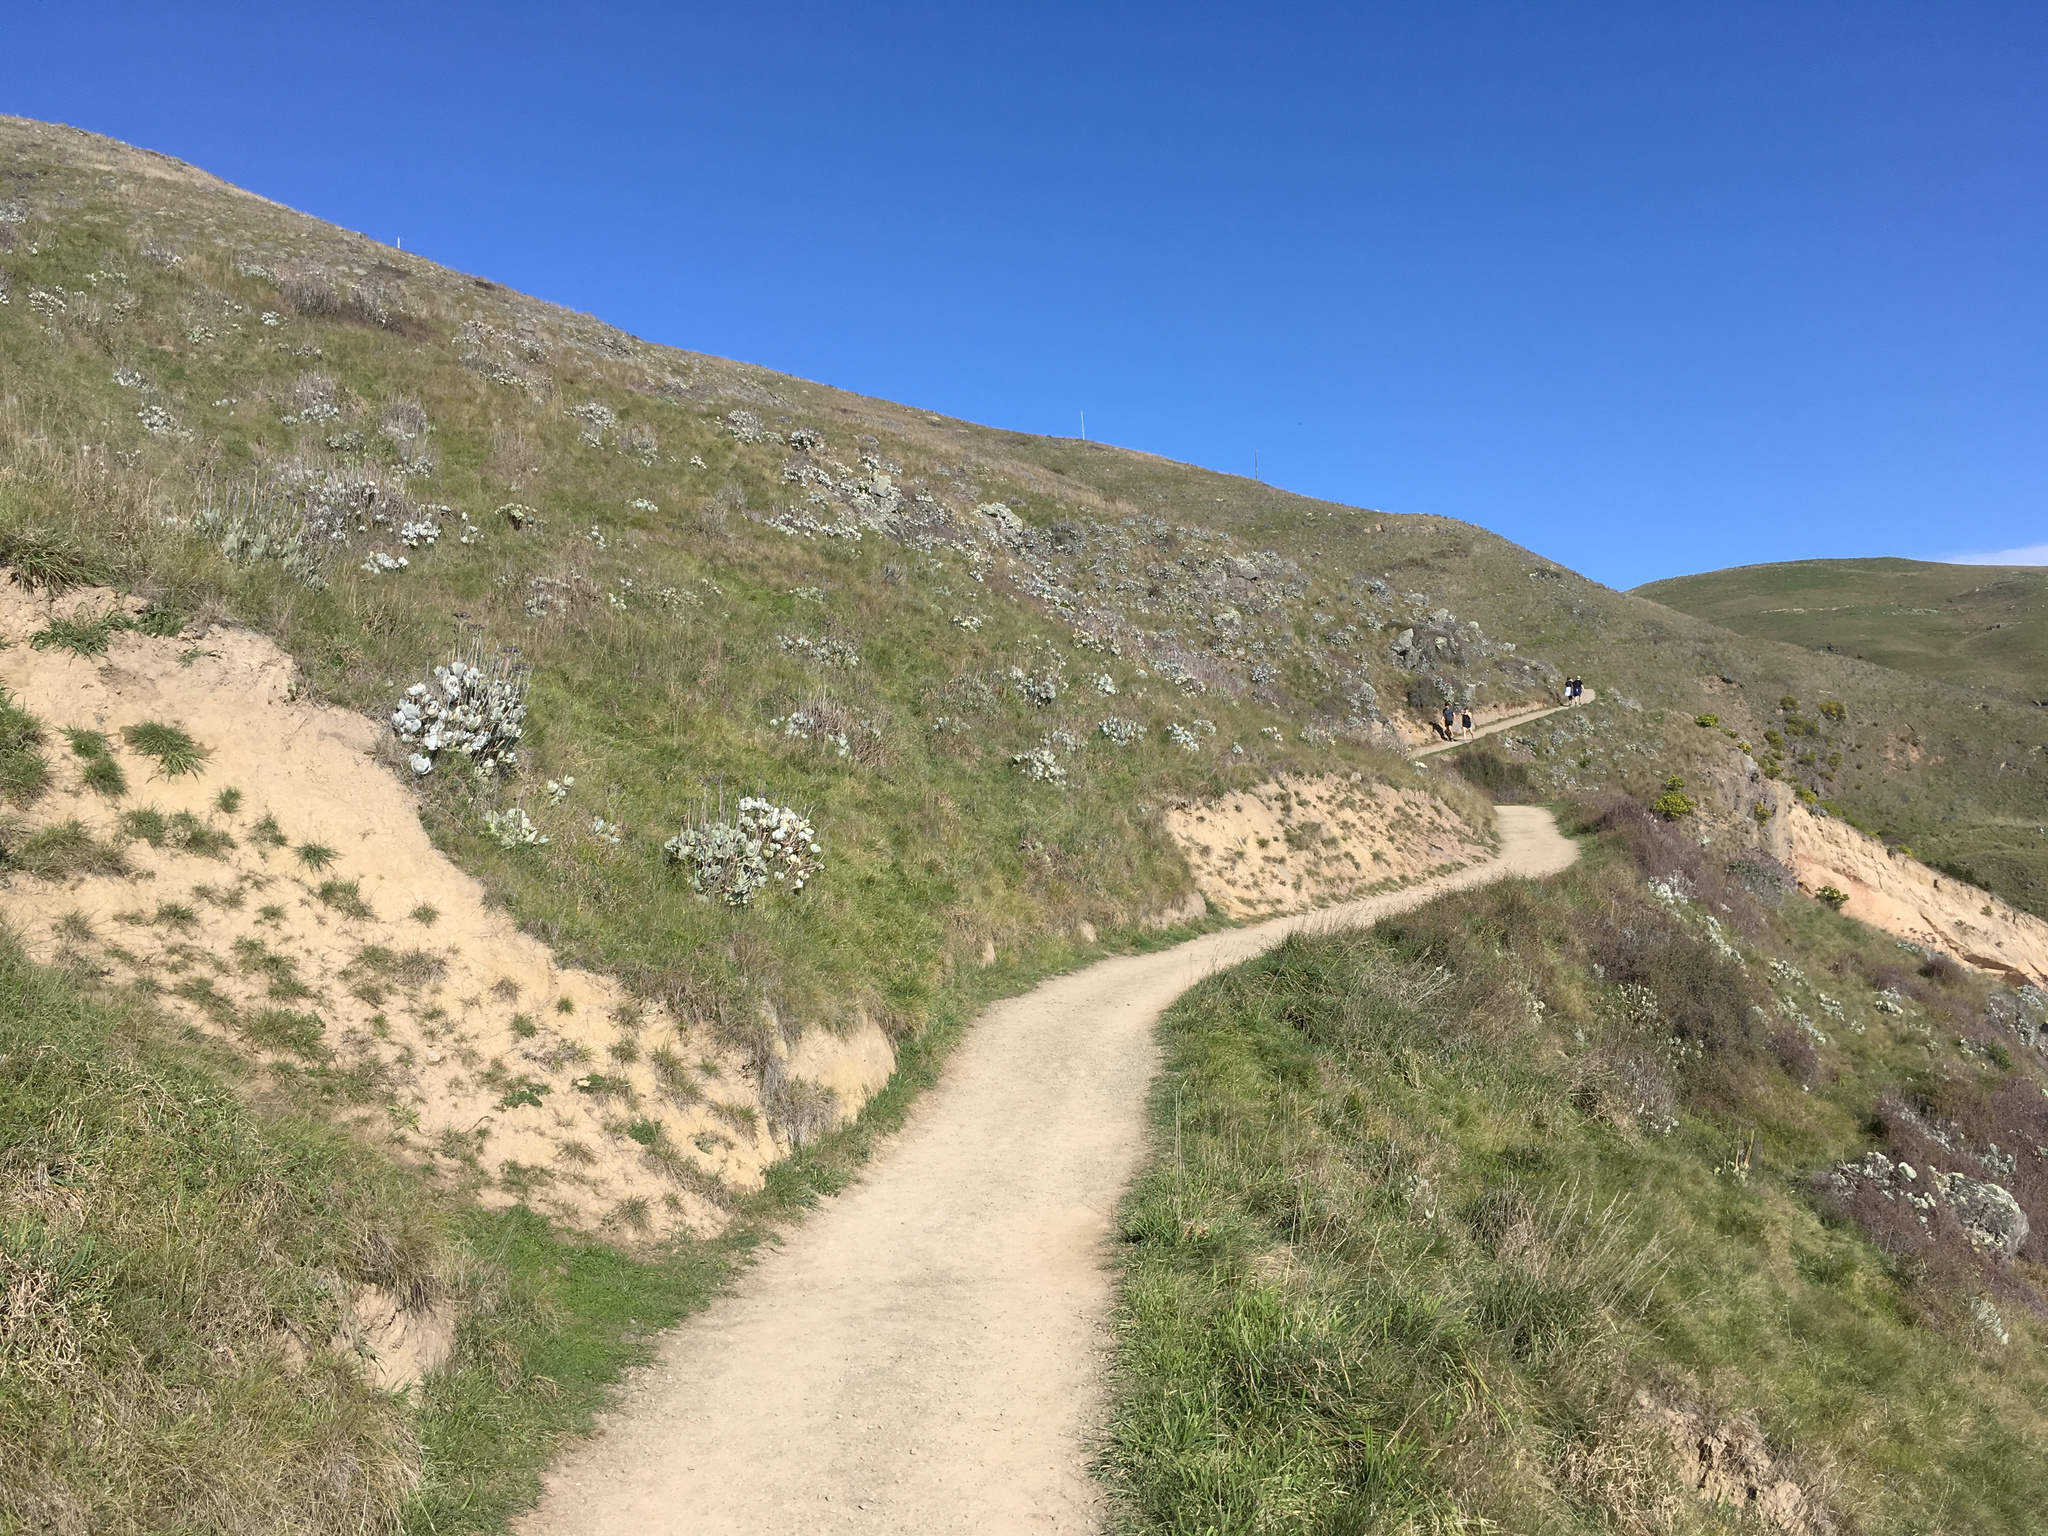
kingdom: Plantae
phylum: Tracheophyta
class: Magnoliopsida
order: Saxifragales
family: Crassulaceae
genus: Cotyledon
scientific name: Cotyledon orbiculata
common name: Pig's ear
